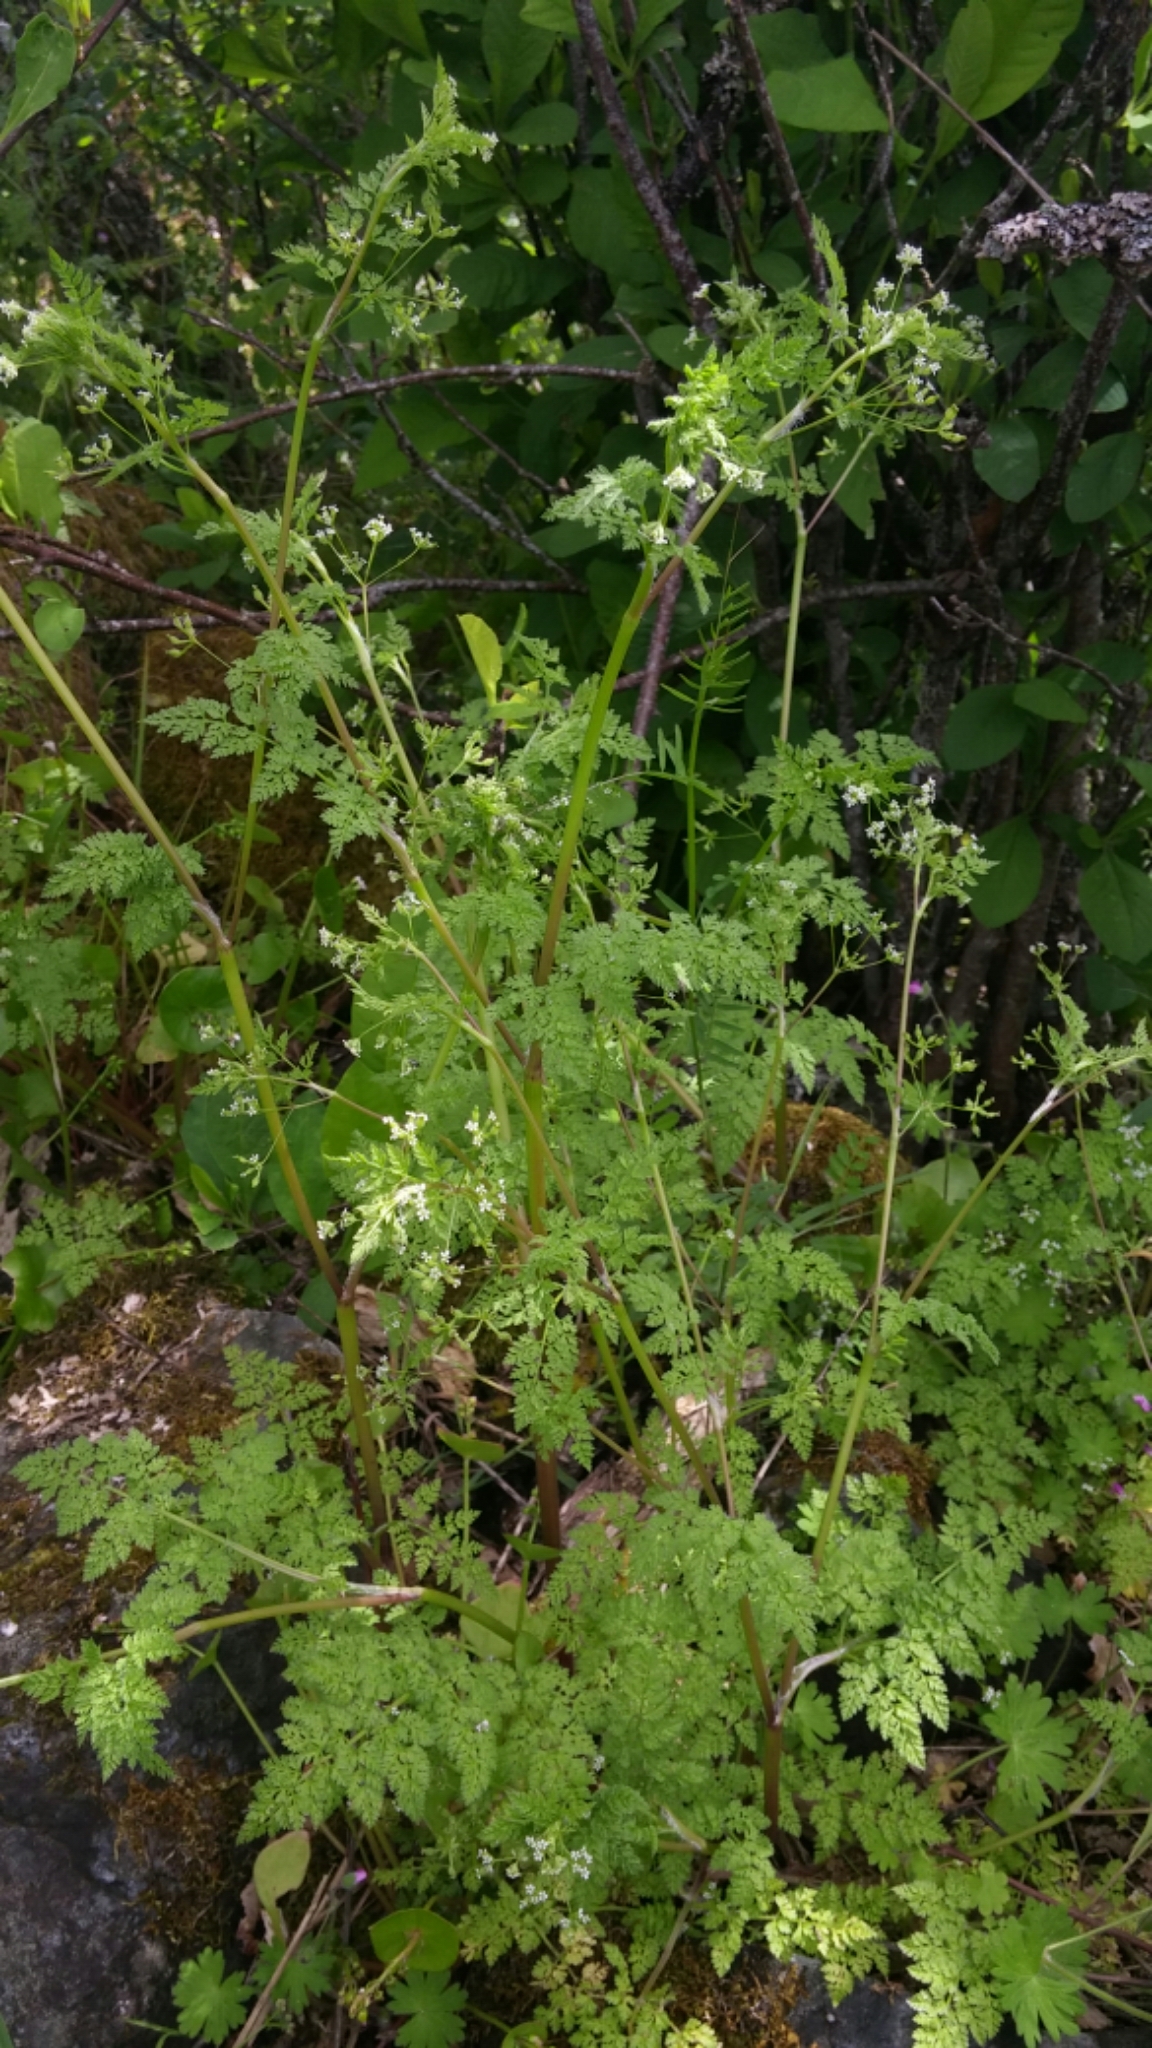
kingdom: Plantae
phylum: Tracheophyta
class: Magnoliopsida
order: Apiales
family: Apiaceae
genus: Anthriscus
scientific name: Anthriscus caucalis
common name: Bur chervil
